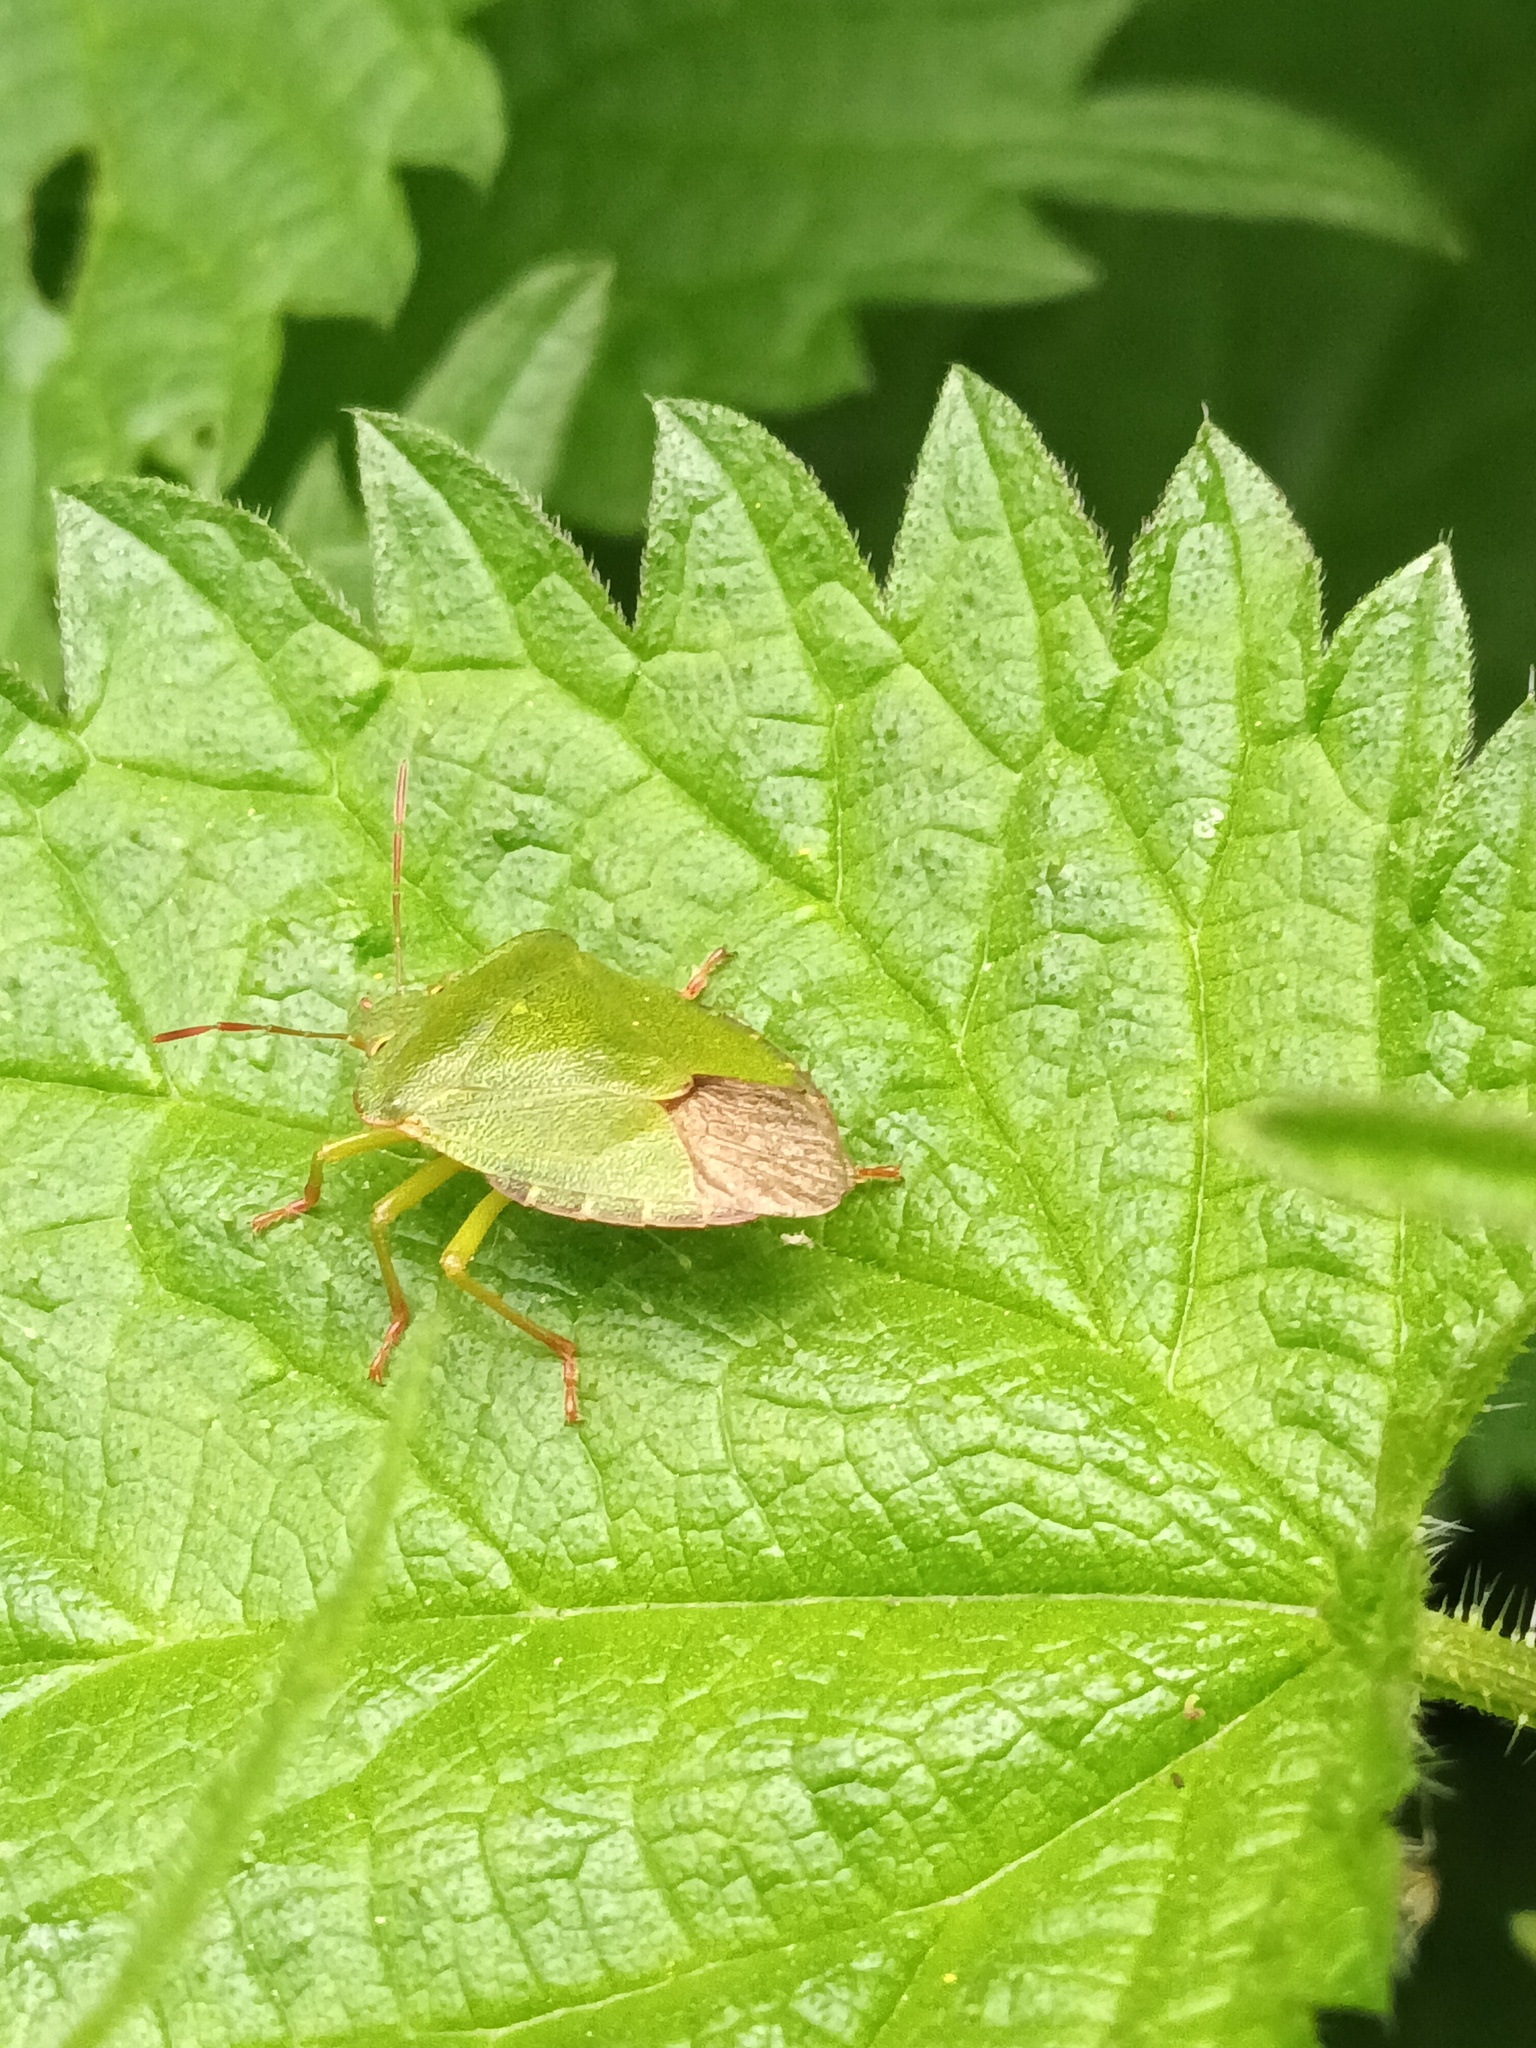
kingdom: Animalia
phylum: Arthropoda
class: Insecta
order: Hemiptera
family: Pentatomidae
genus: Palomena
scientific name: Palomena prasina
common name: Green shieldbug
